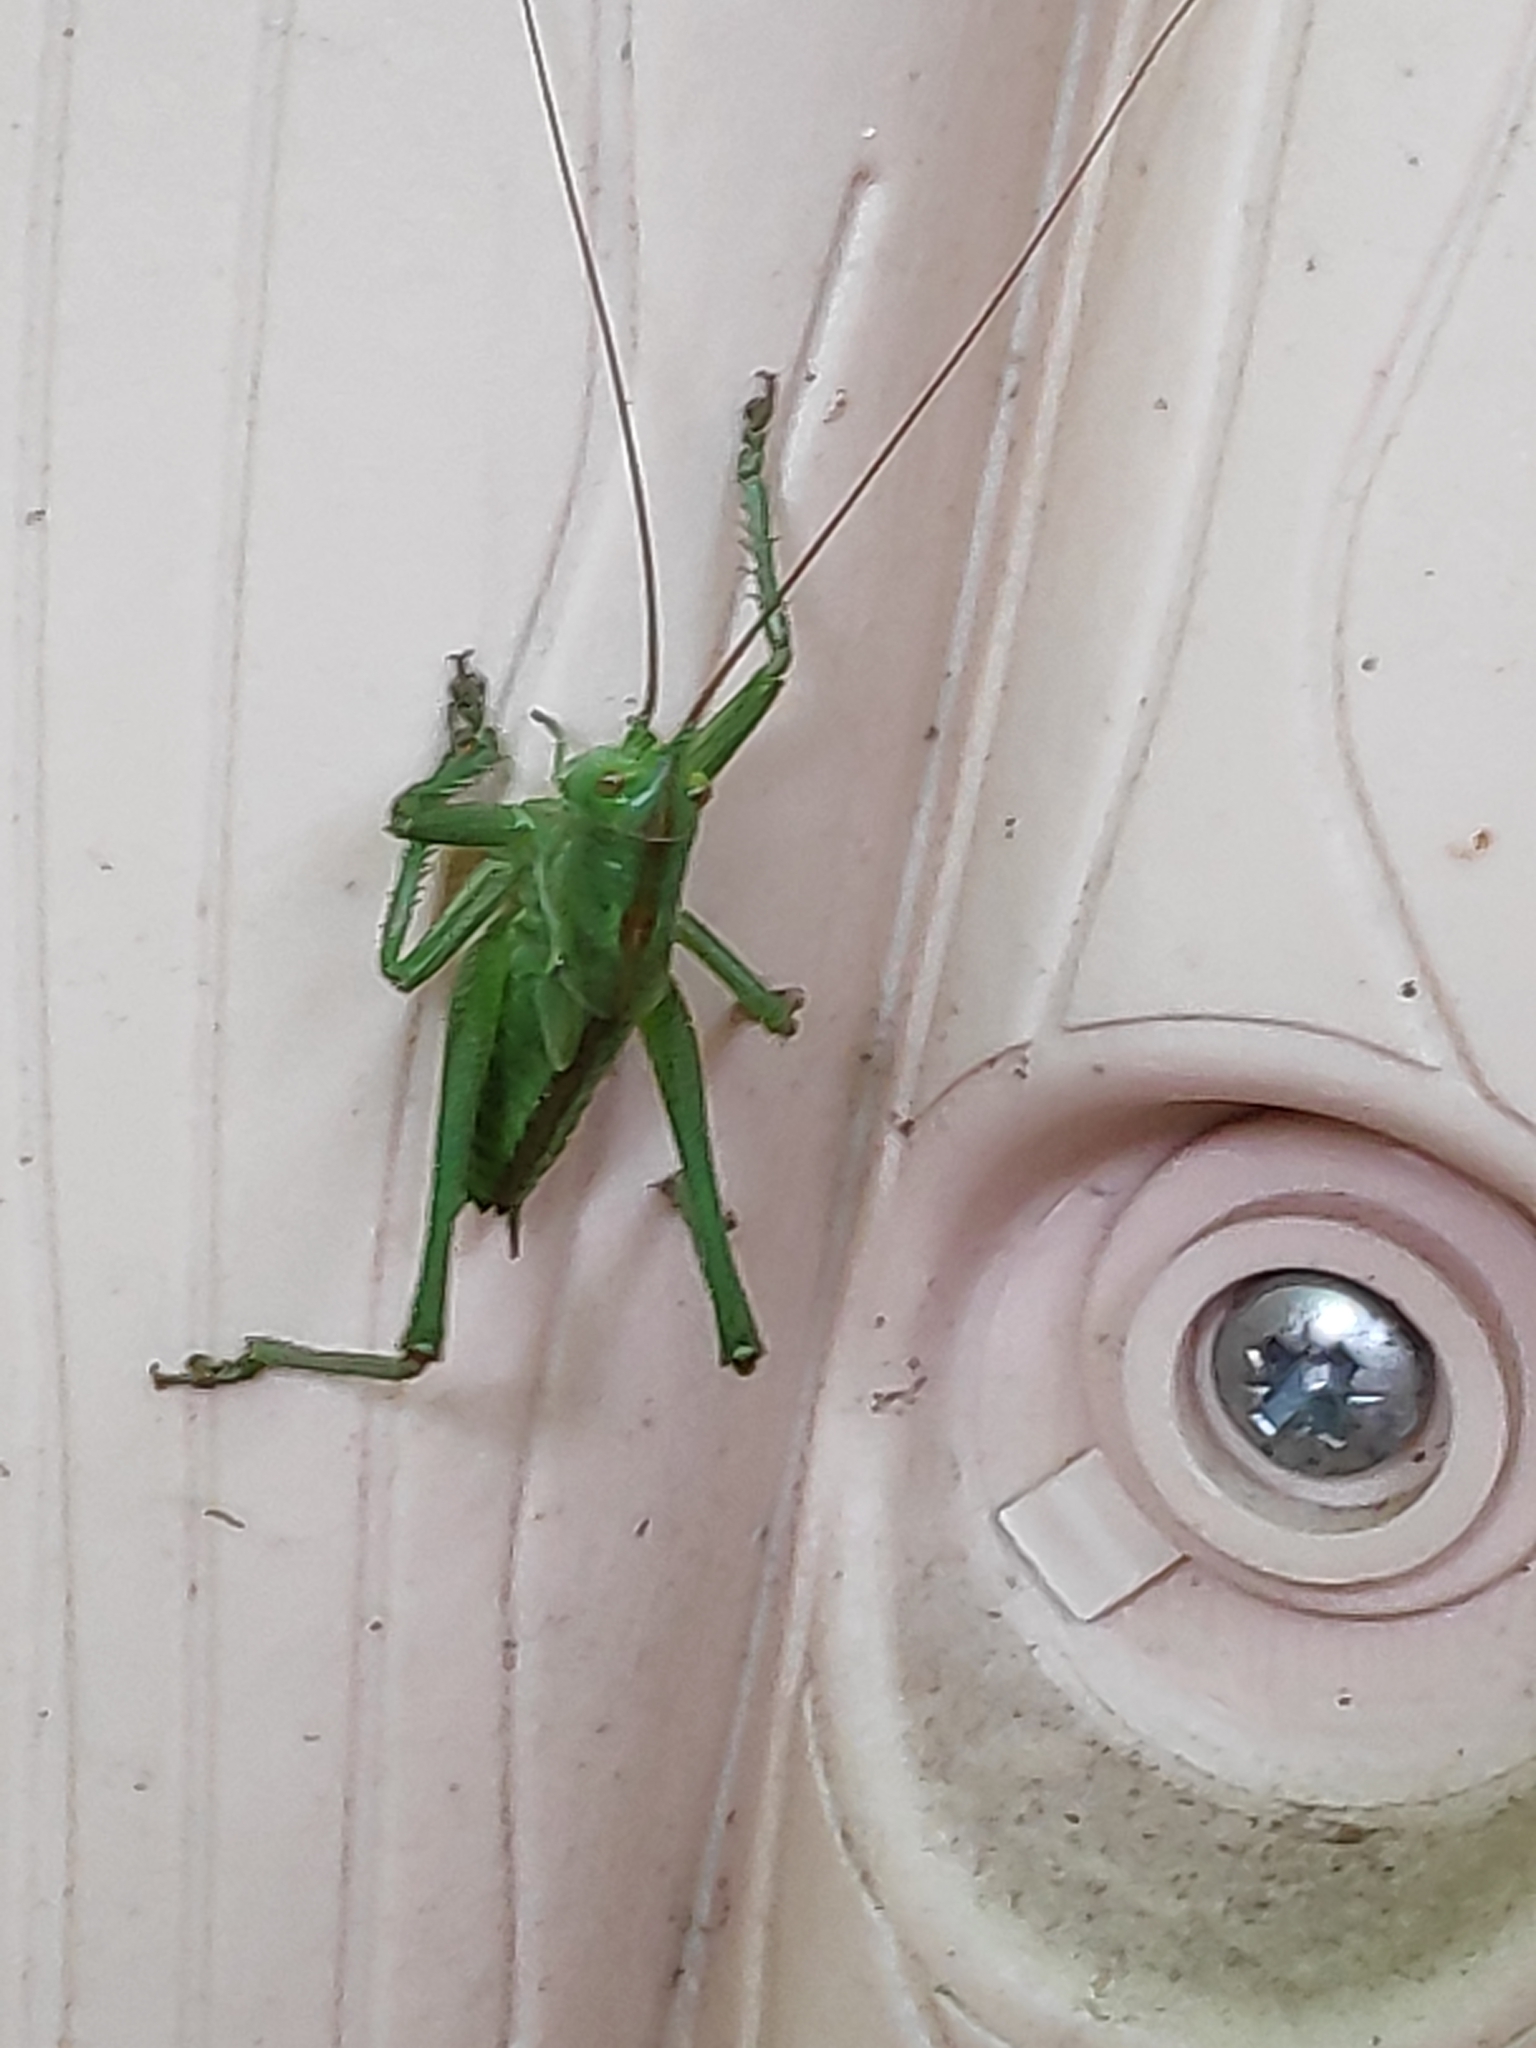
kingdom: Animalia
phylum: Arthropoda
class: Insecta
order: Orthoptera
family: Tettigoniidae
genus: Tettigonia
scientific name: Tettigonia viridissima
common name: Great green bush-cricket
